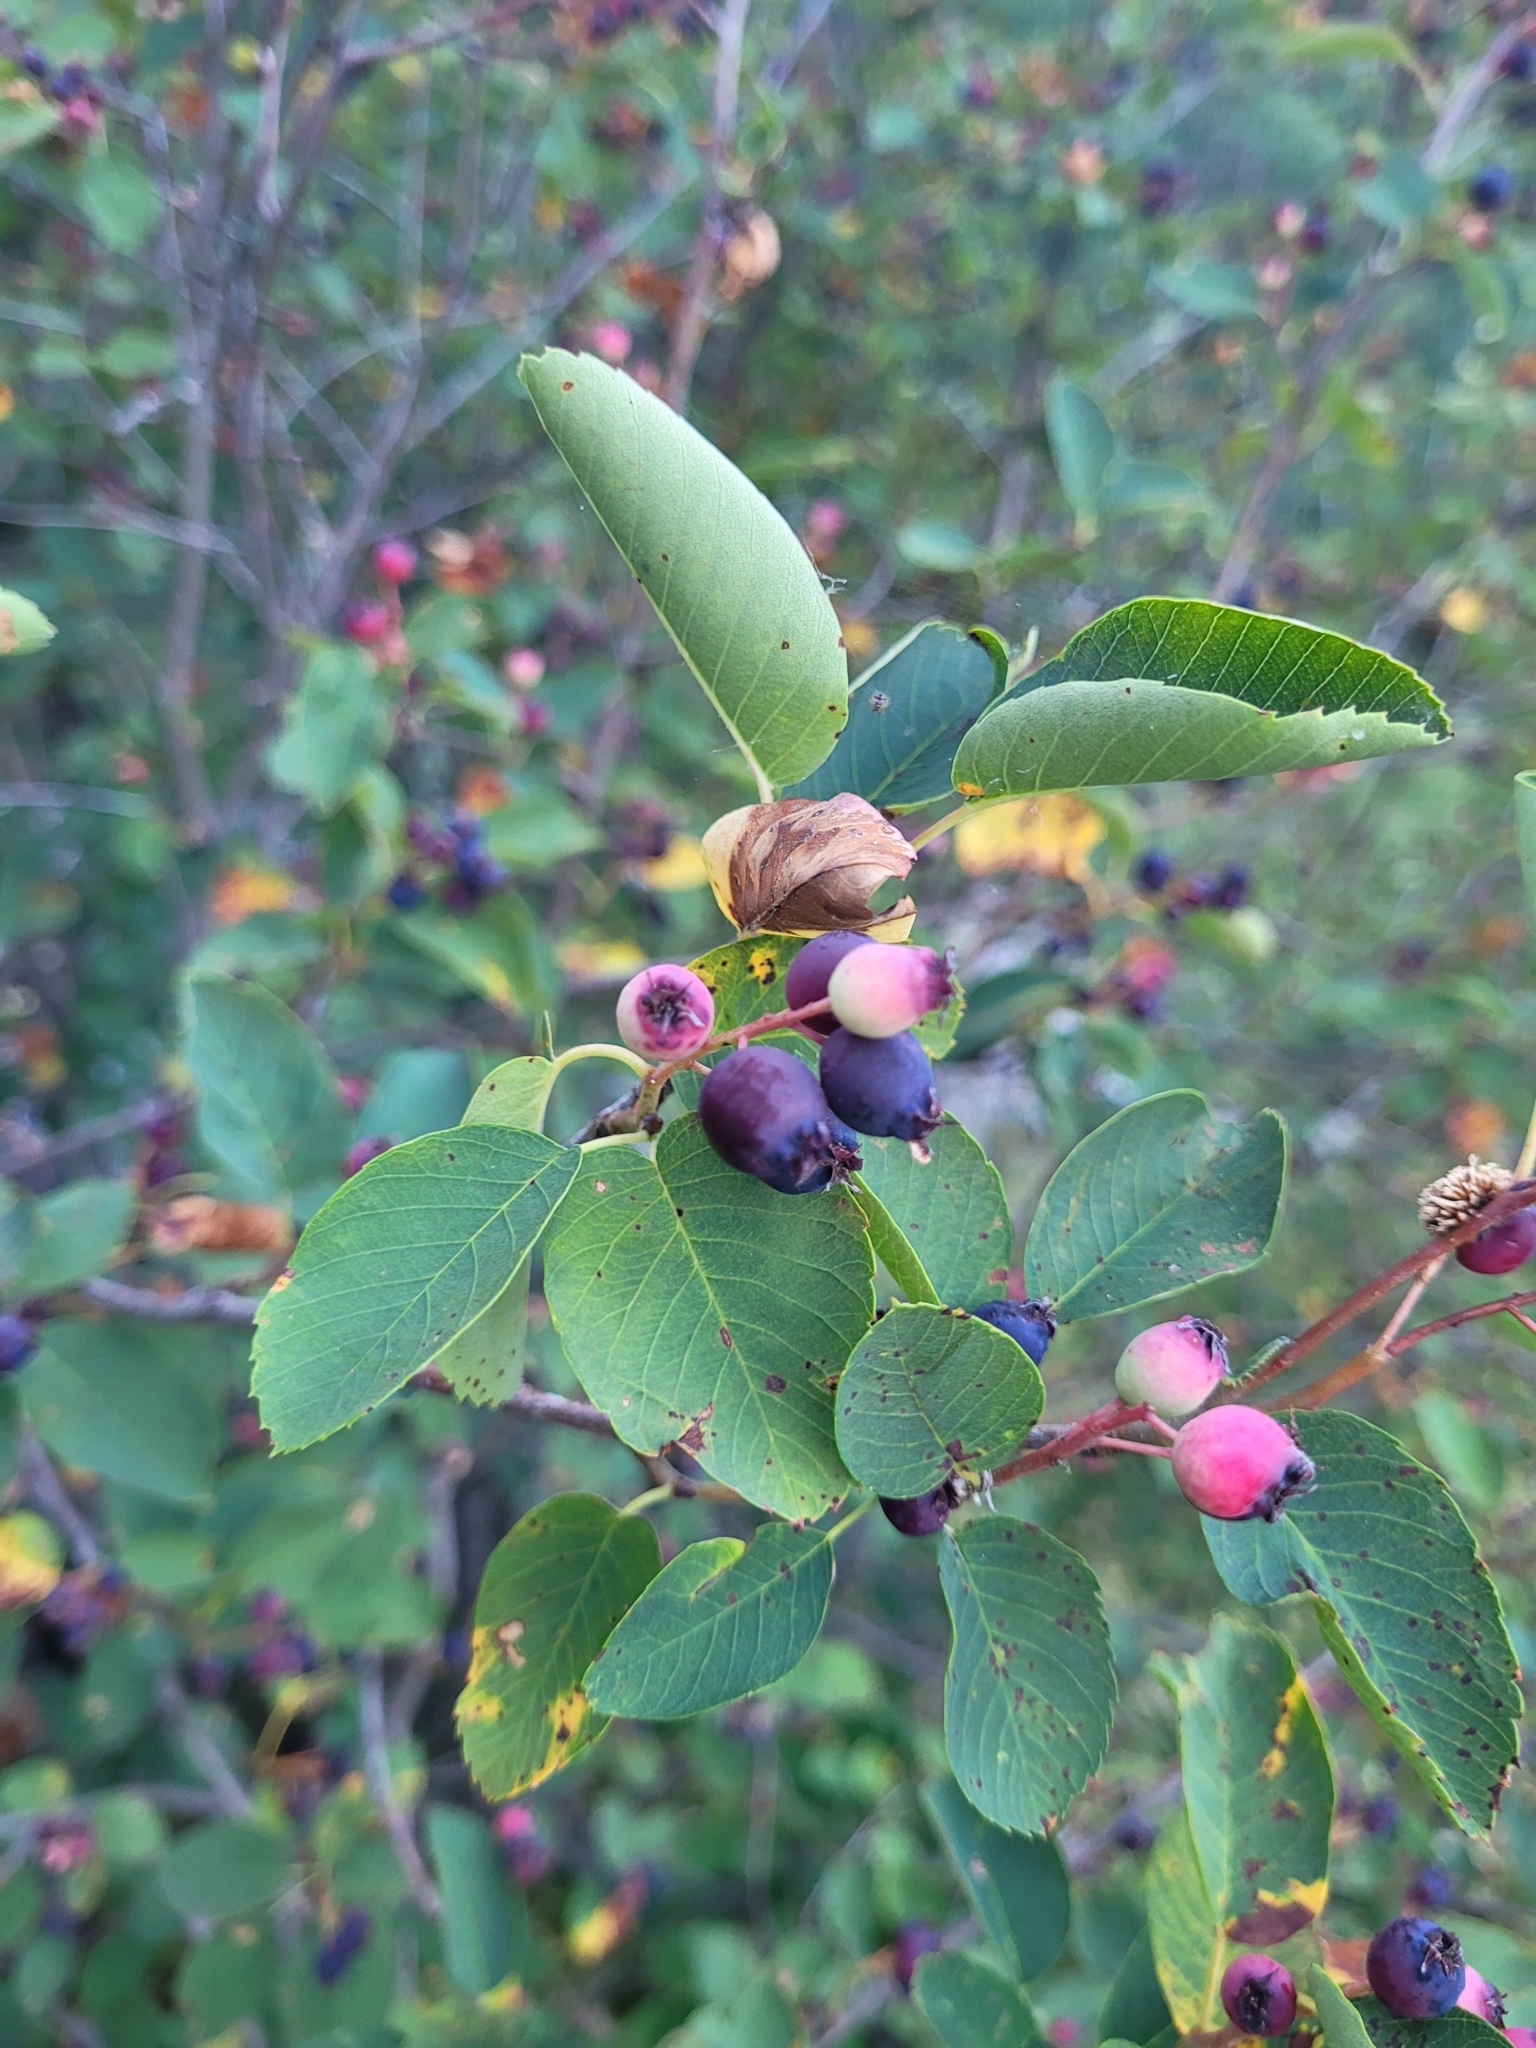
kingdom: Plantae
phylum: Tracheophyta
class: Magnoliopsida
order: Rosales
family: Rosaceae
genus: Amelanchier
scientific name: Amelanchier alnifolia
